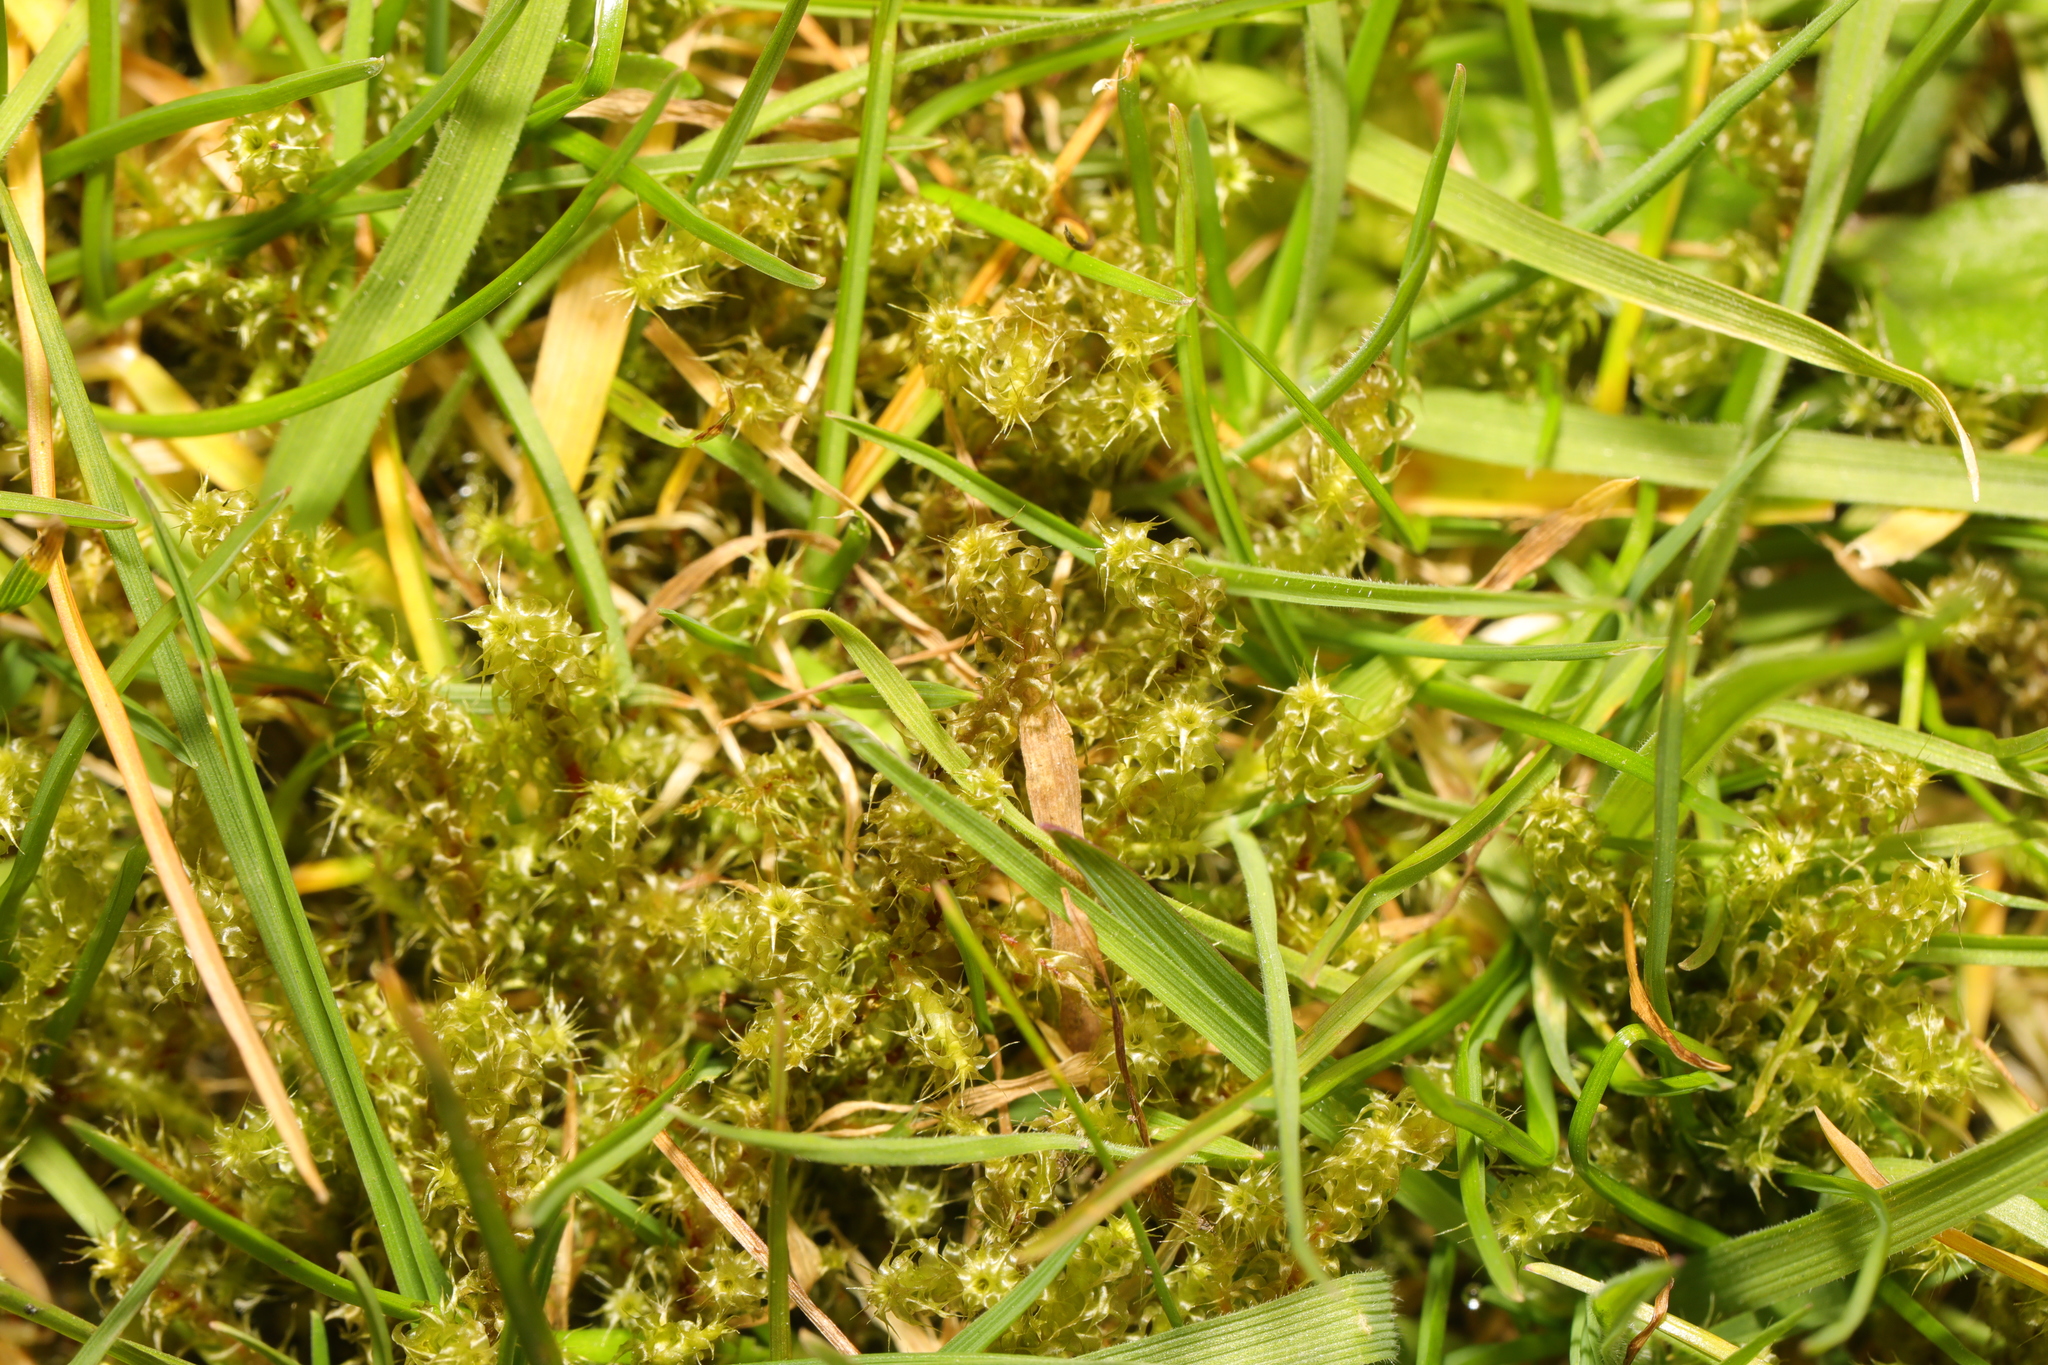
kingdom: Plantae
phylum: Bryophyta
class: Bryopsida
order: Hypnales
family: Hylocomiaceae
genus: Rhytidiadelphus
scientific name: Rhytidiadelphus squarrosus
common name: Springy turf-moss
